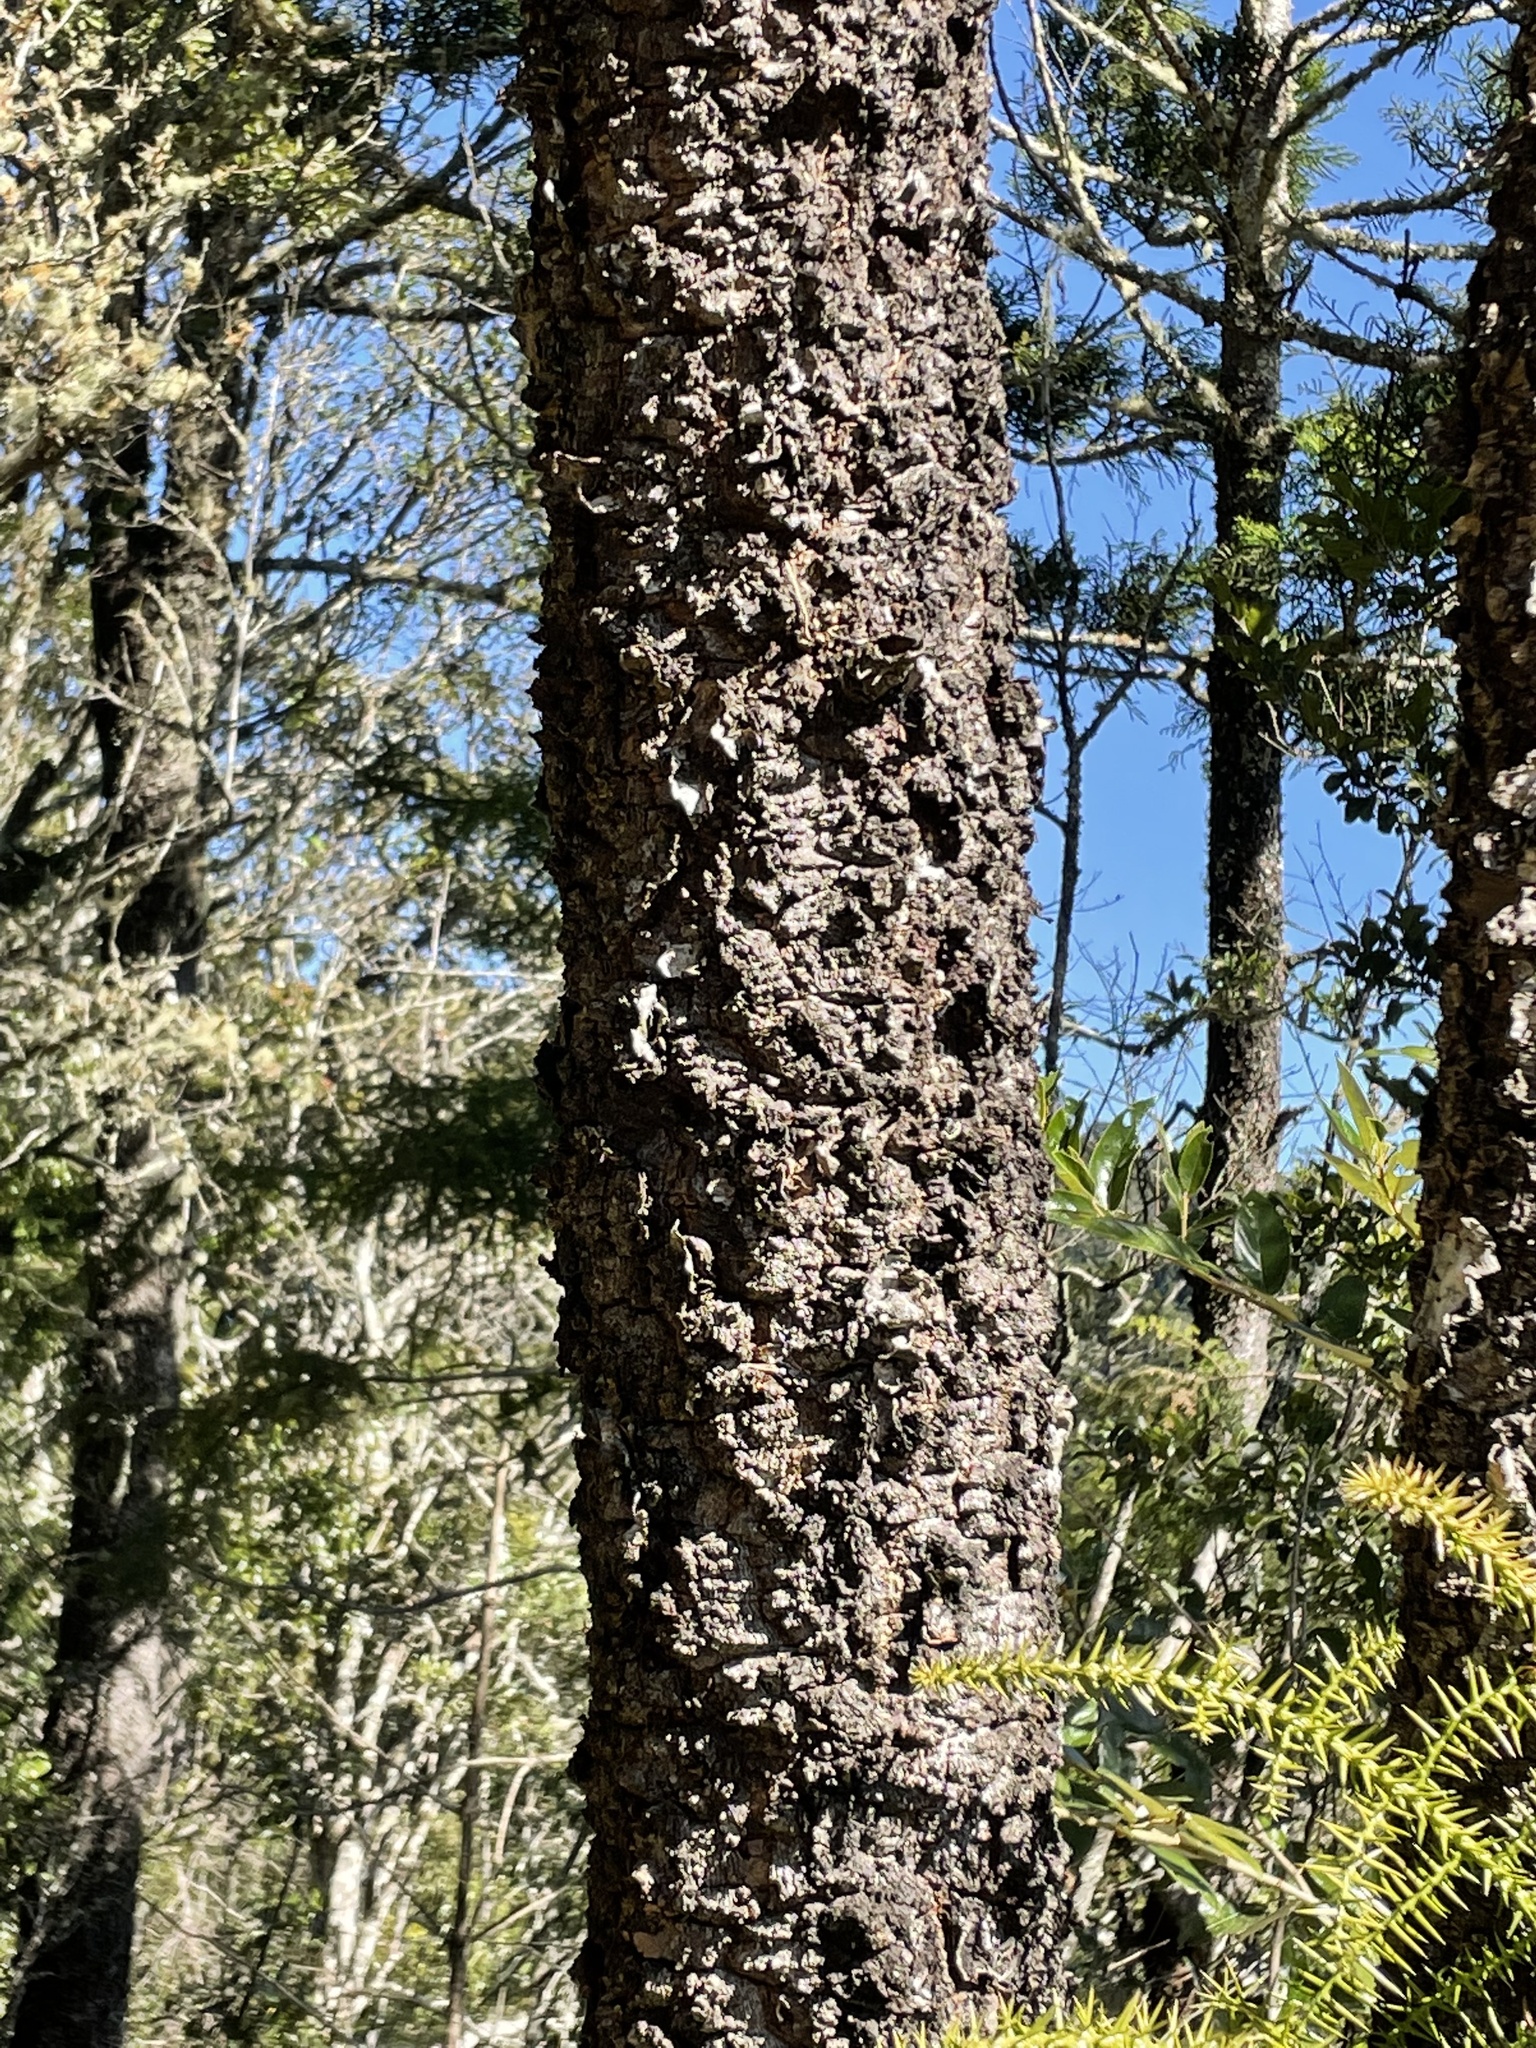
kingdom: Plantae
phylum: Tracheophyta
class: Pinopsida
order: Pinales
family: Araucariaceae
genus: Araucaria
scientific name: Araucaria cunninghamii
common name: Colonial pine
